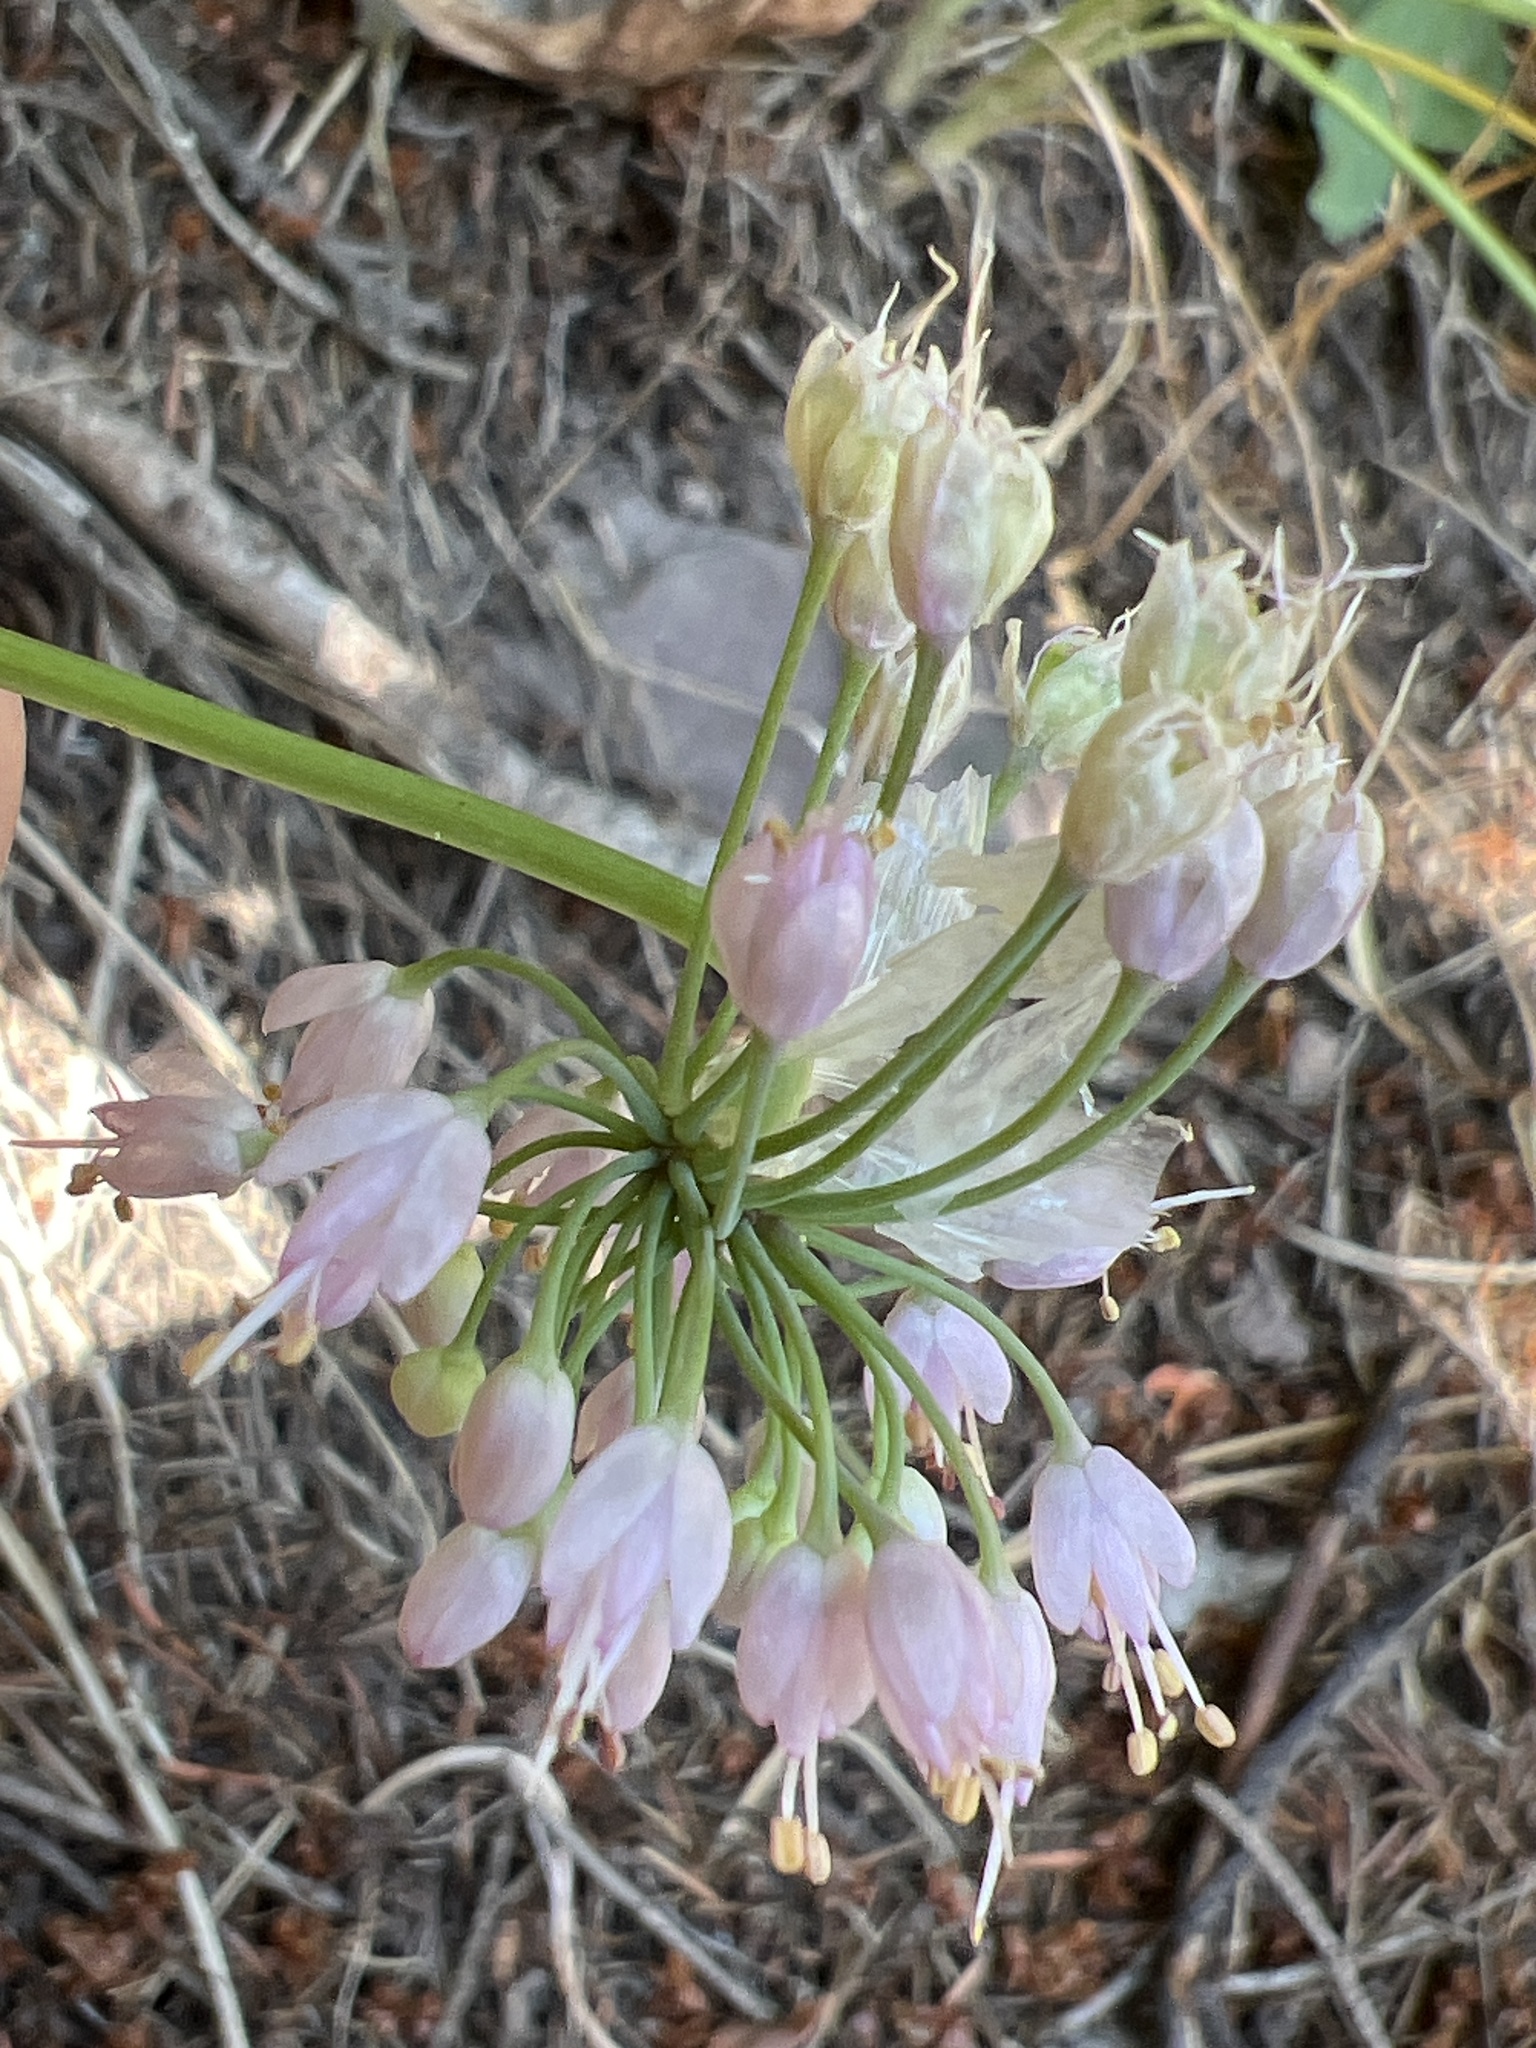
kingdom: Plantae
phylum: Tracheophyta
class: Liliopsida
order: Asparagales
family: Amaryllidaceae
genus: Allium
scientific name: Allium cernuum
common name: Nodding onion
